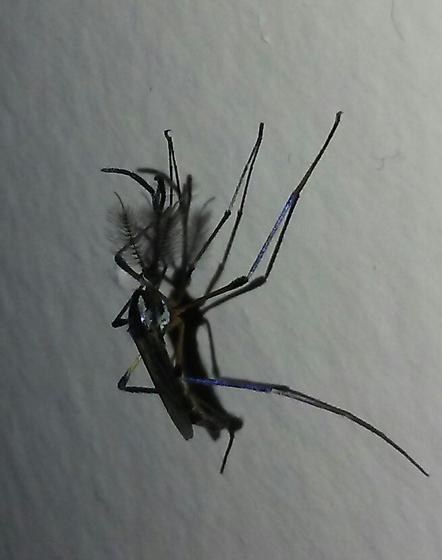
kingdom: Animalia
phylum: Arthropoda
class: Insecta
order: Diptera
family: Culicidae
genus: Psorophora
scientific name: Psorophora howardii
